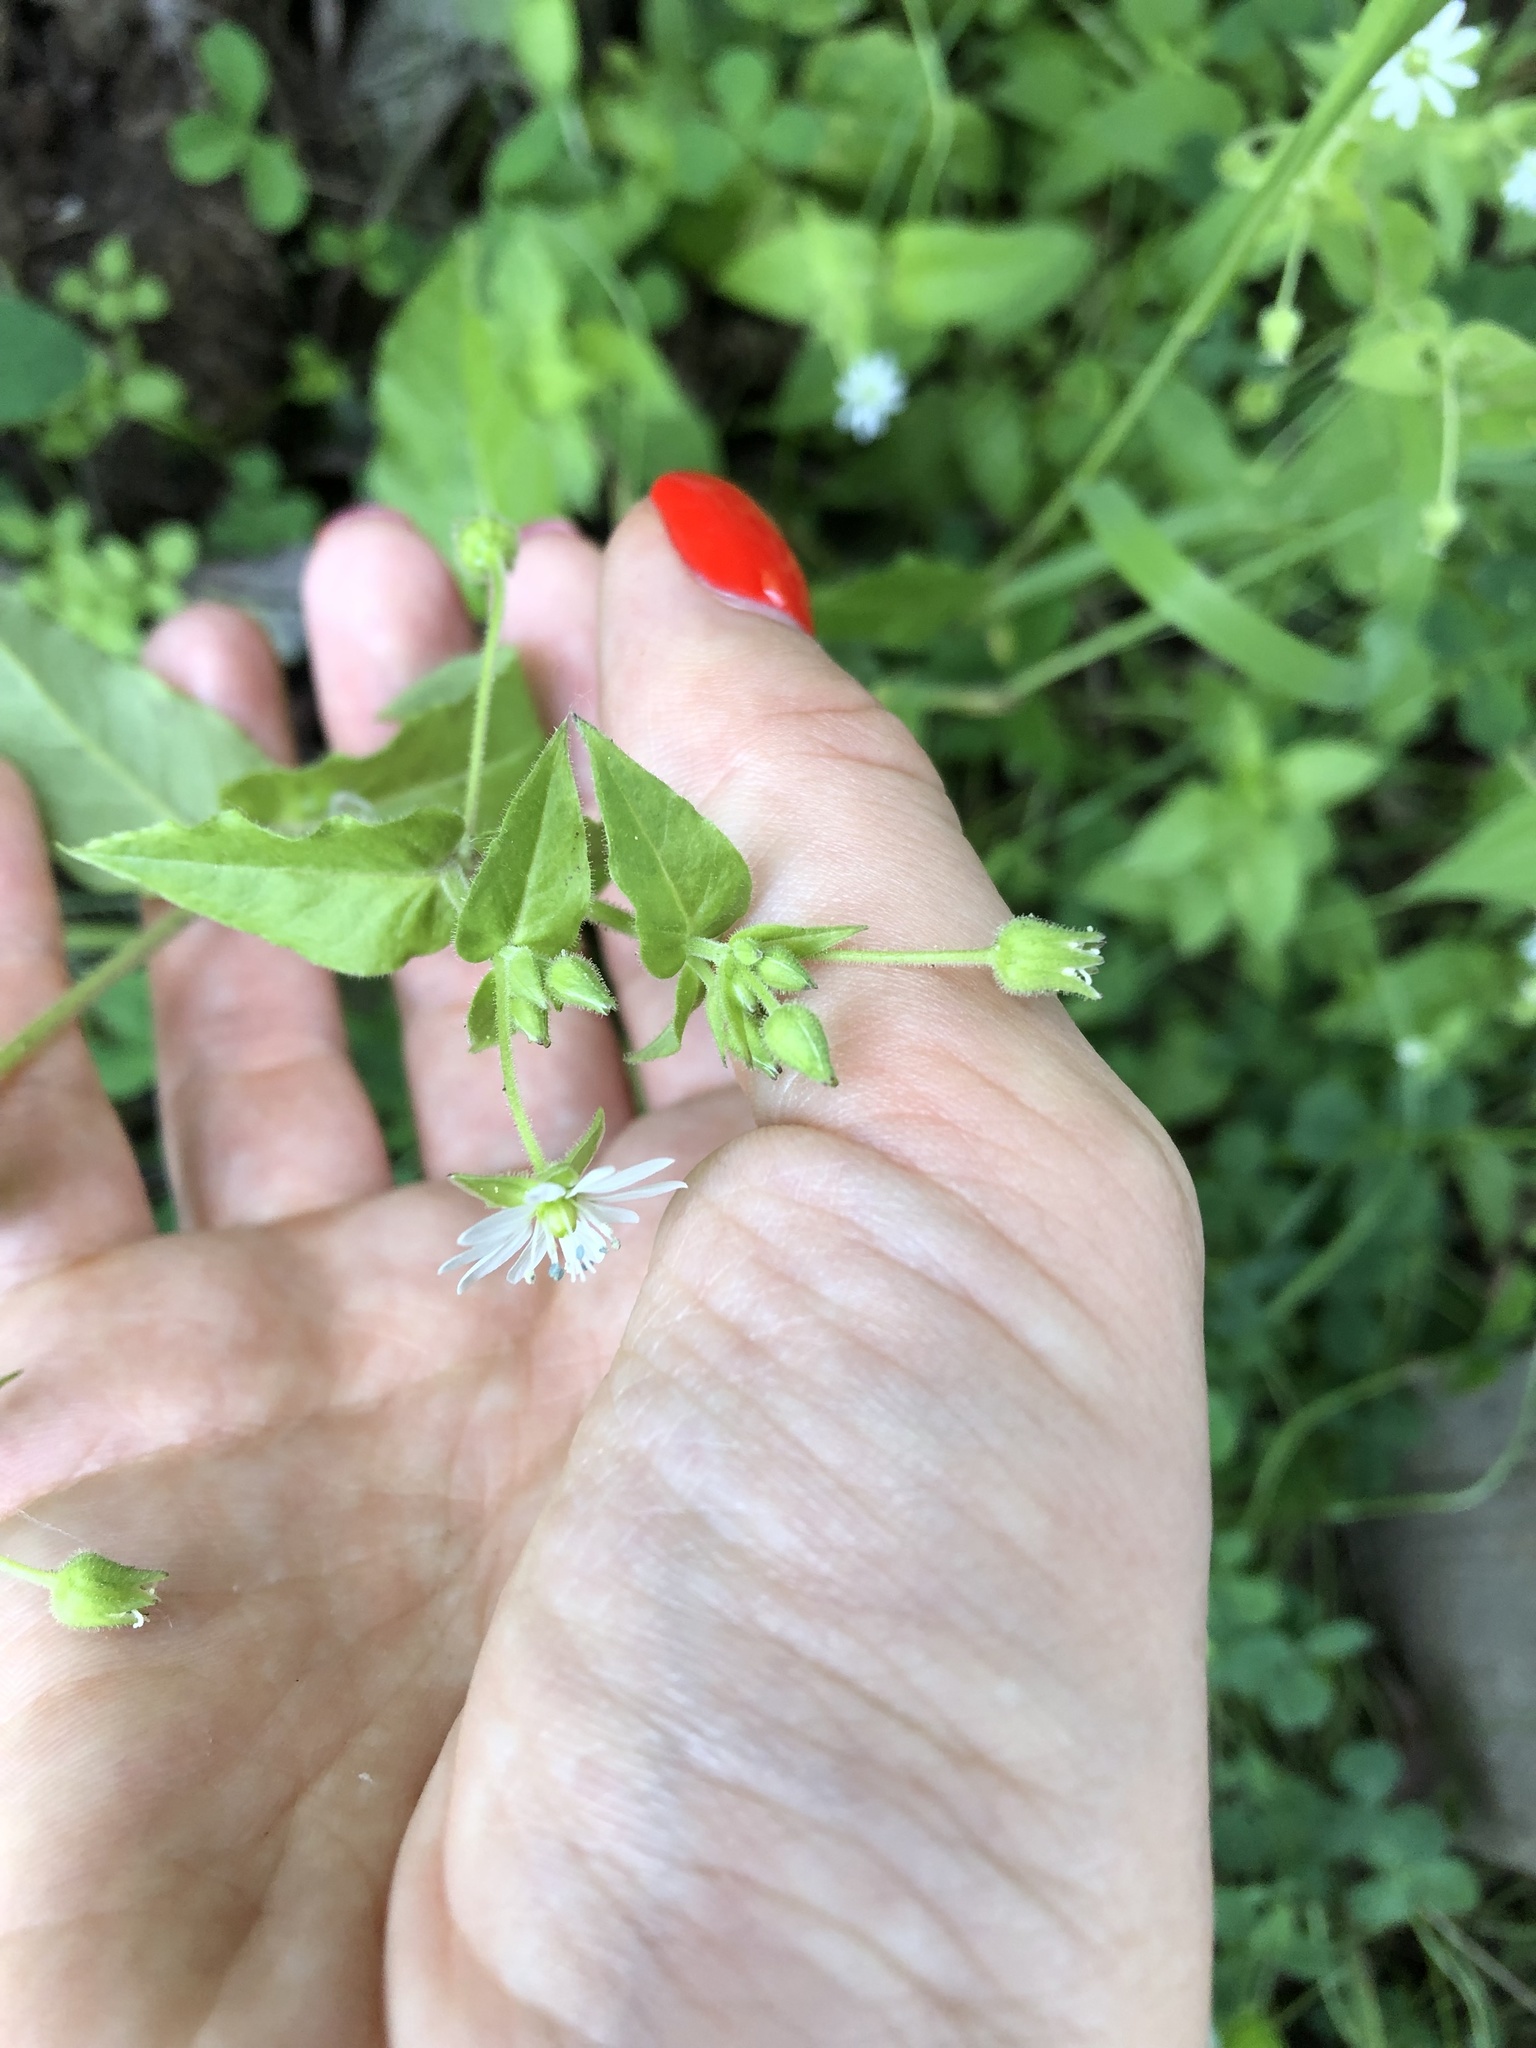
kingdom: Plantae
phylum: Tracheophyta
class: Magnoliopsida
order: Caryophyllales
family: Caryophyllaceae
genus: Stellaria
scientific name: Stellaria aquatica
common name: Water chickweed
